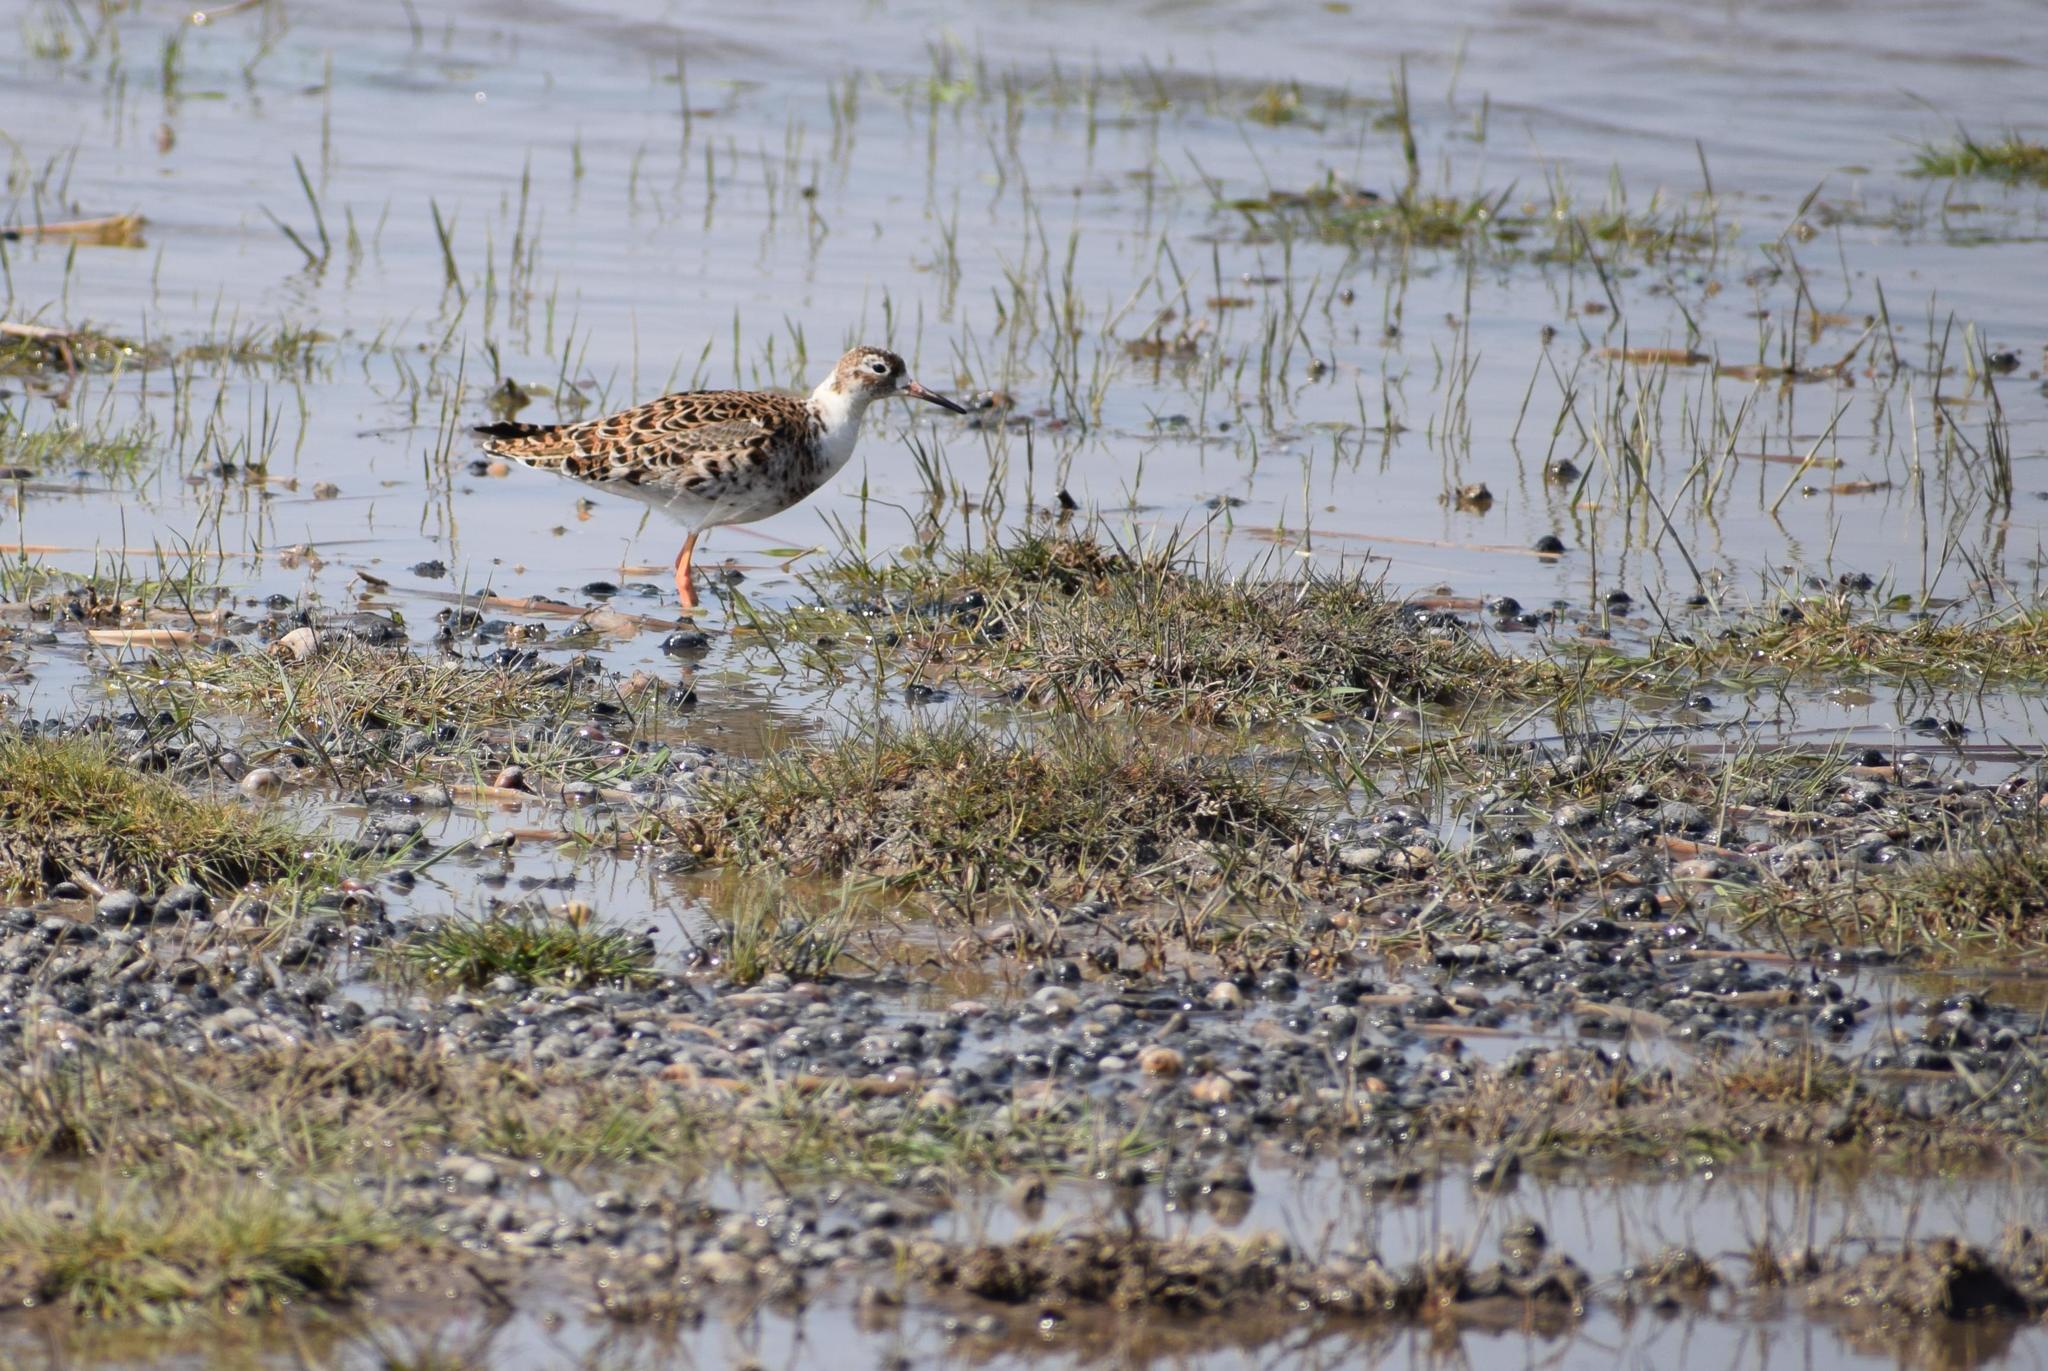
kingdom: Animalia
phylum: Chordata
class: Aves
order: Charadriiformes
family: Scolopacidae
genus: Calidris
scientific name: Calidris pugnax
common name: Ruff
